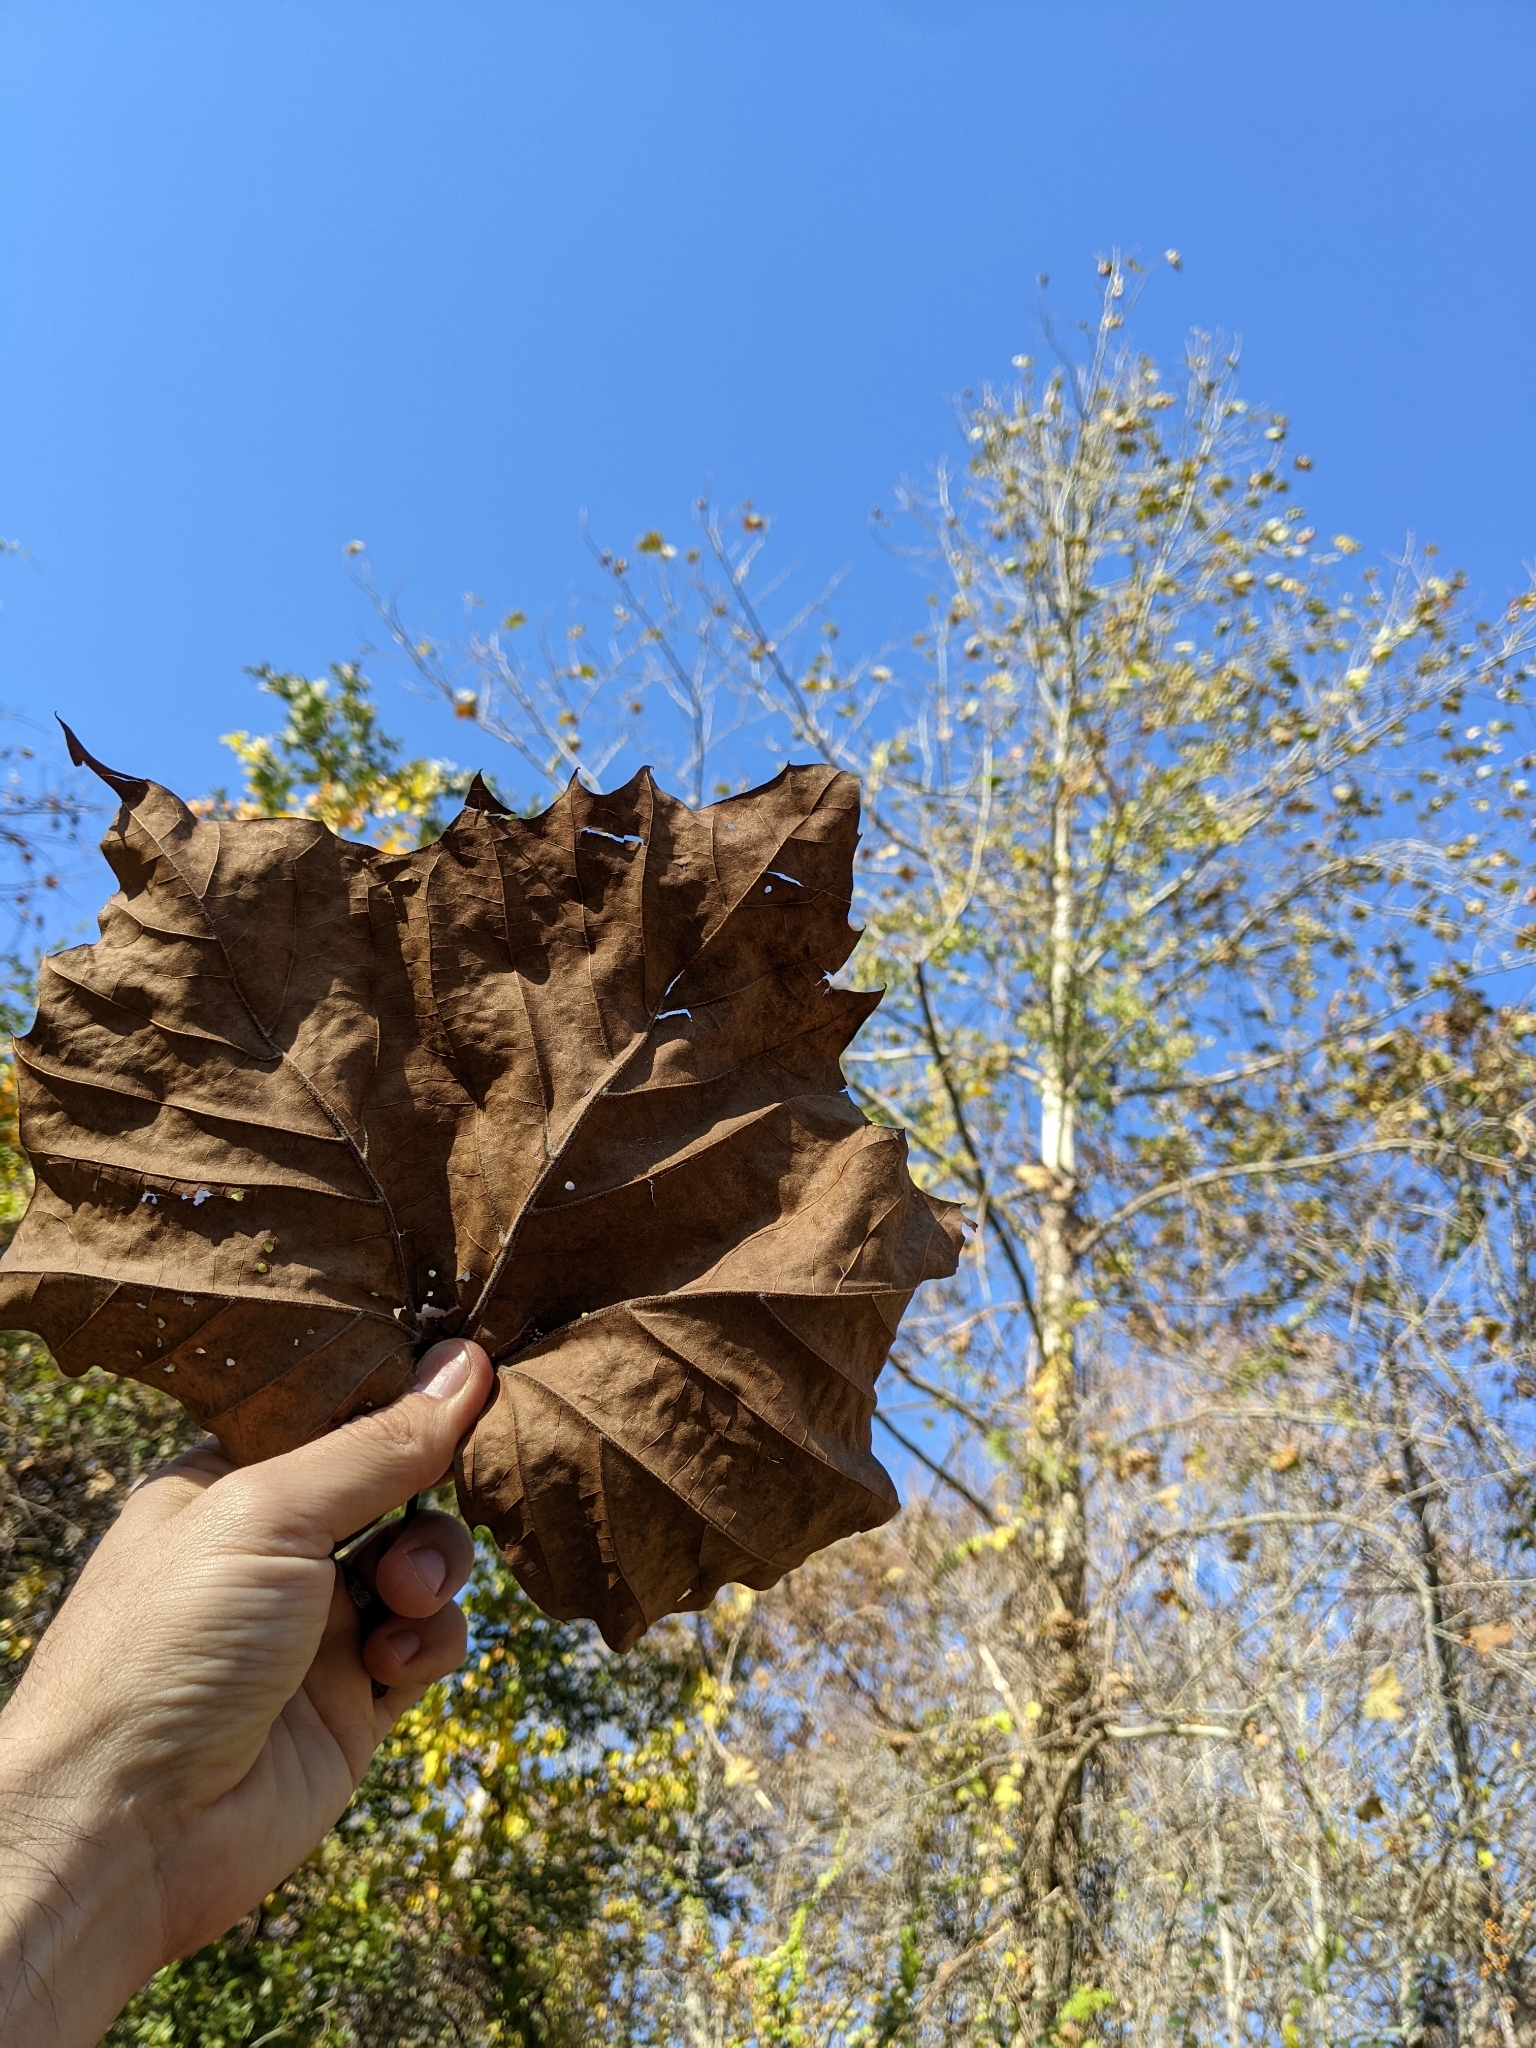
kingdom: Plantae
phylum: Tracheophyta
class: Magnoliopsida
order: Proteales
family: Platanaceae
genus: Platanus
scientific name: Platanus occidentalis
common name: American sycamore
